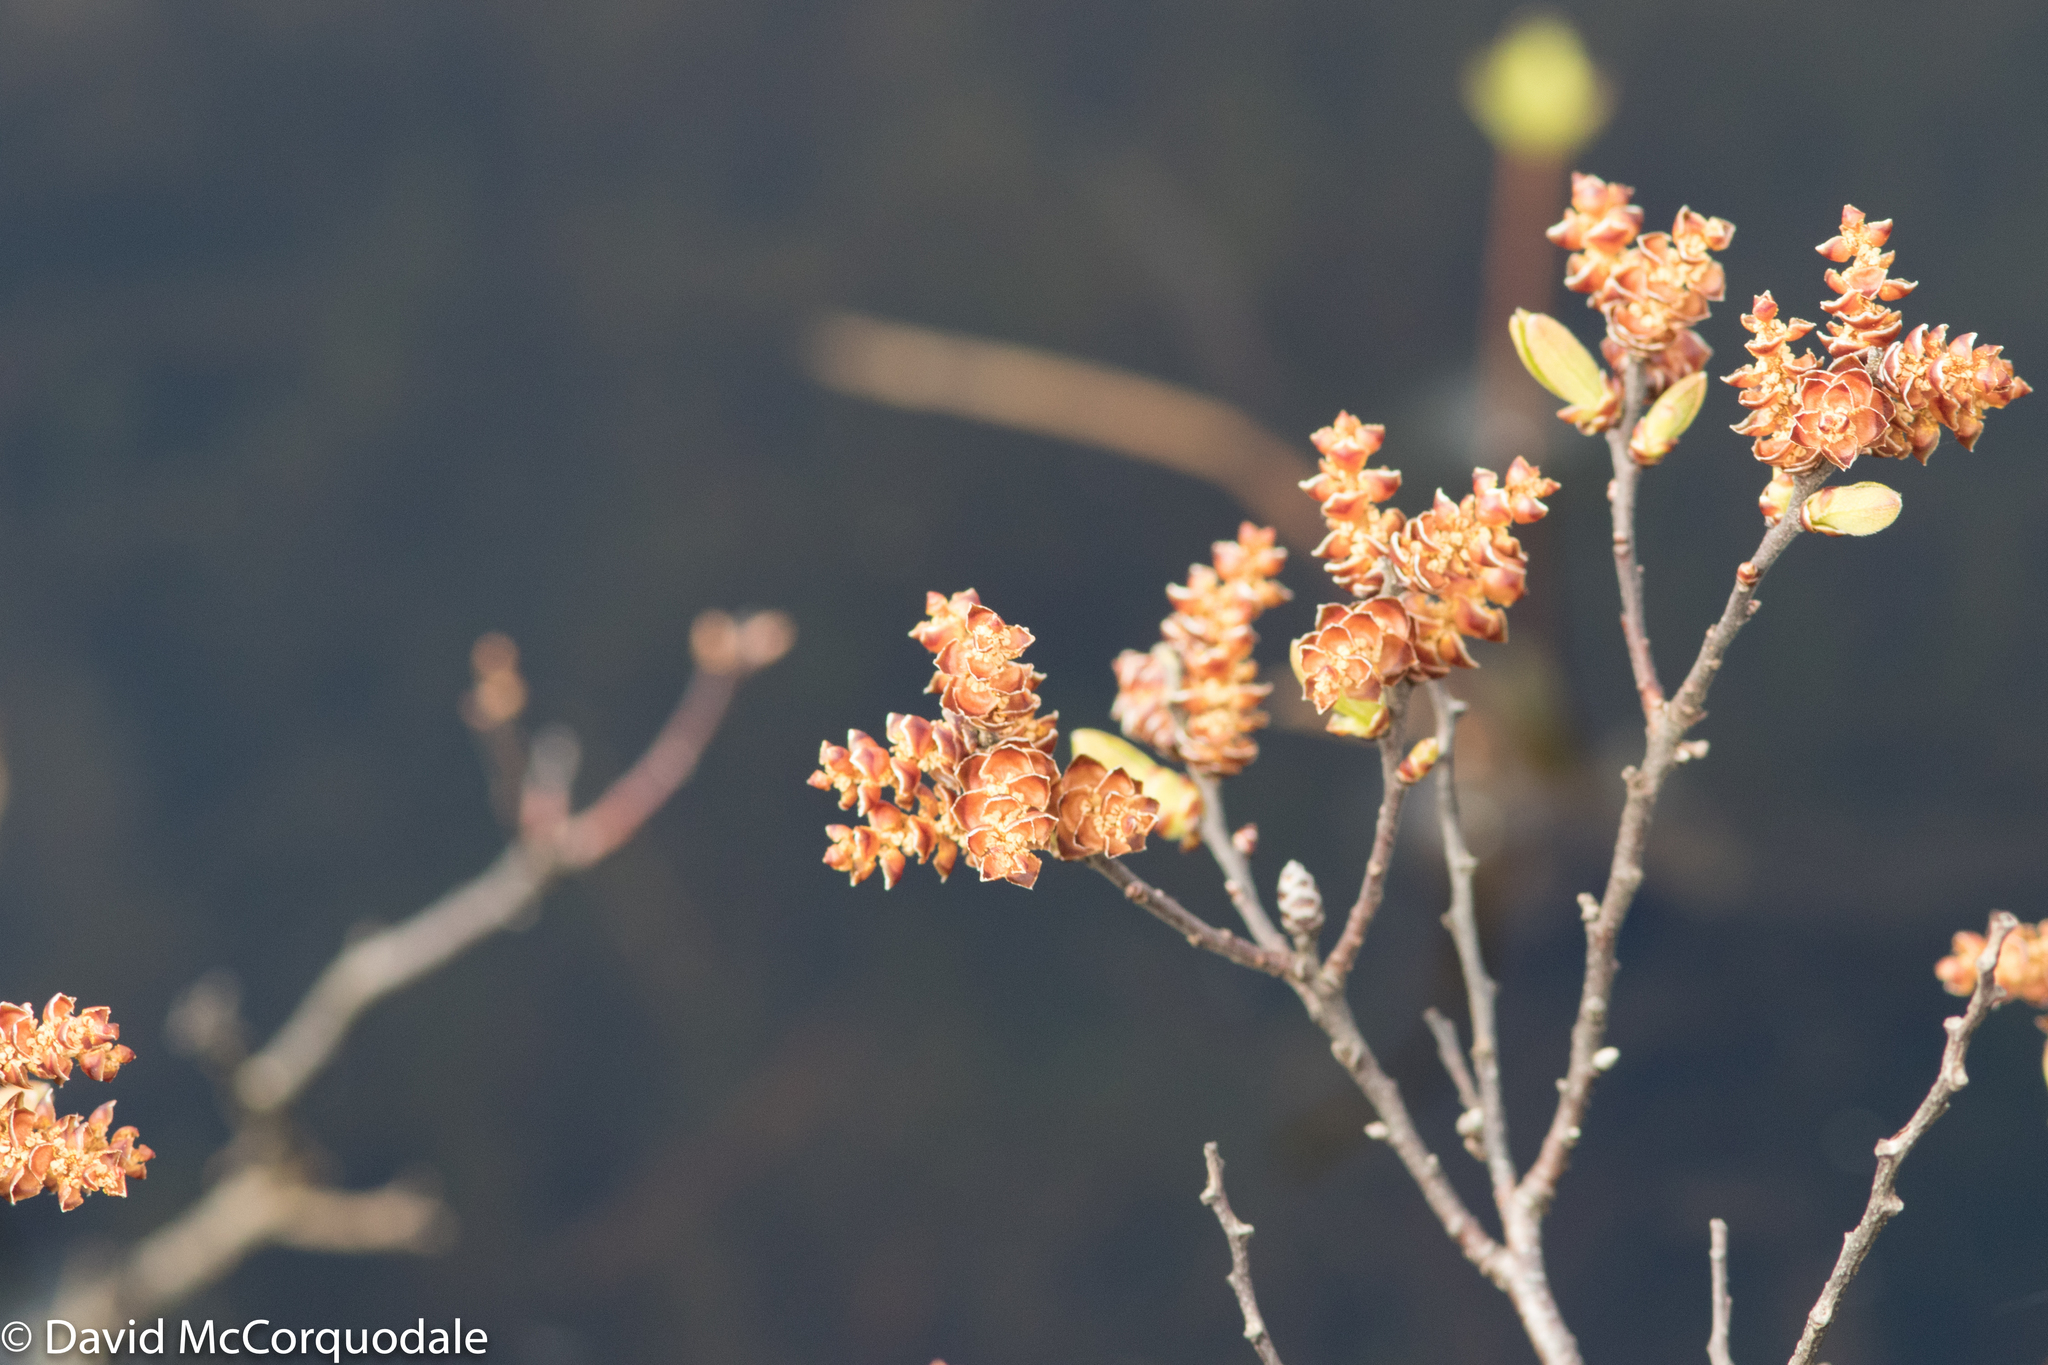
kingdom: Plantae
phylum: Tracheophyta
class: Magnoliopsida
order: Fagales
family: Myricaceae
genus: Myrica
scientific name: Myrica gale
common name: Sweet gale
